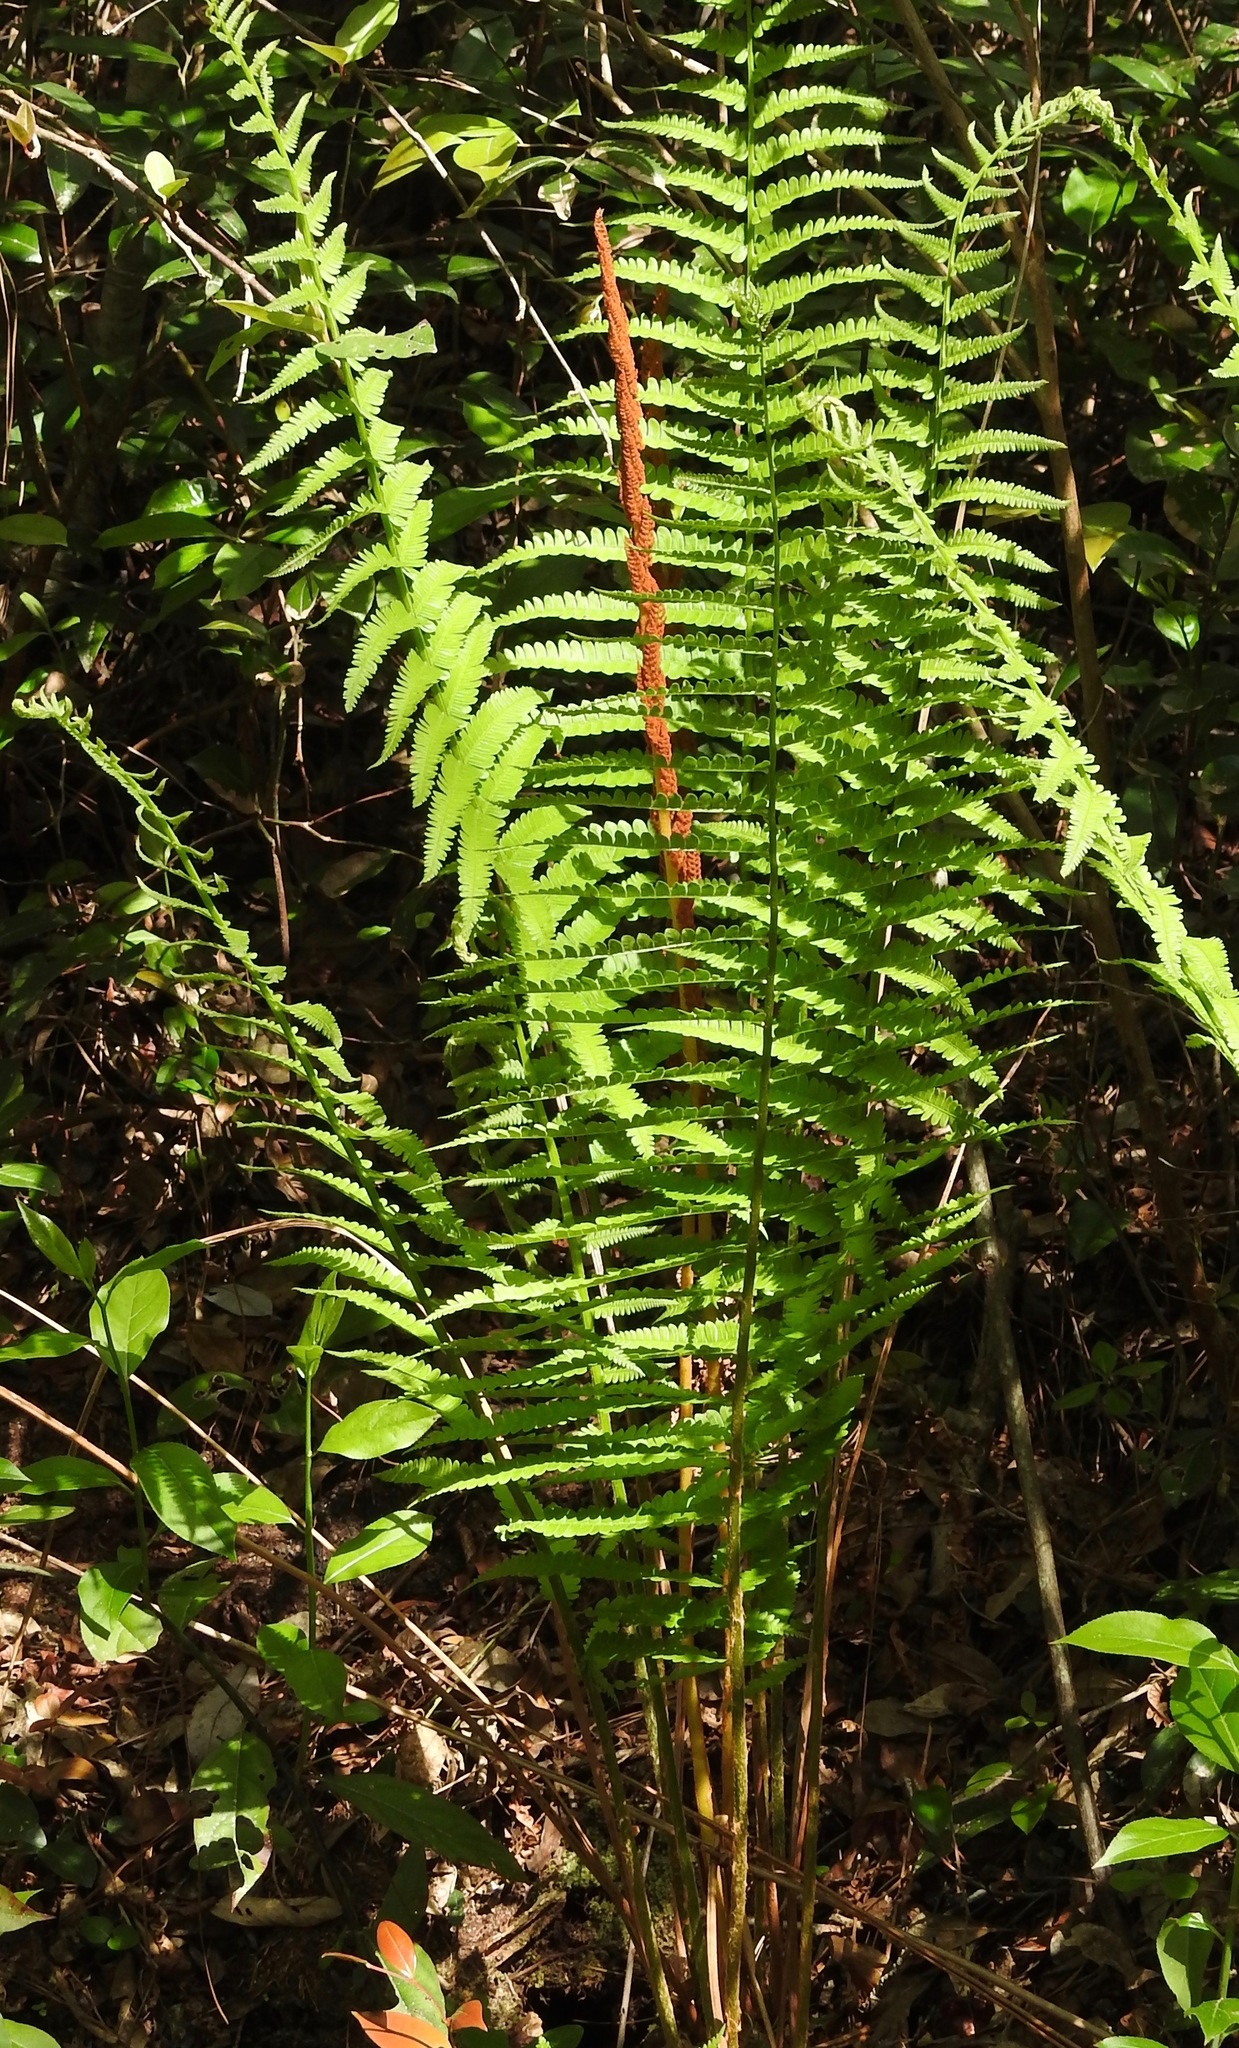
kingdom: Plantae
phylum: Tracheophyta
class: Polypodiopsida
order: Osmundales
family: Osmundaceae
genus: Osmundastrum
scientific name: Osmundastrum cinnamomeum
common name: Cinnamon fern
